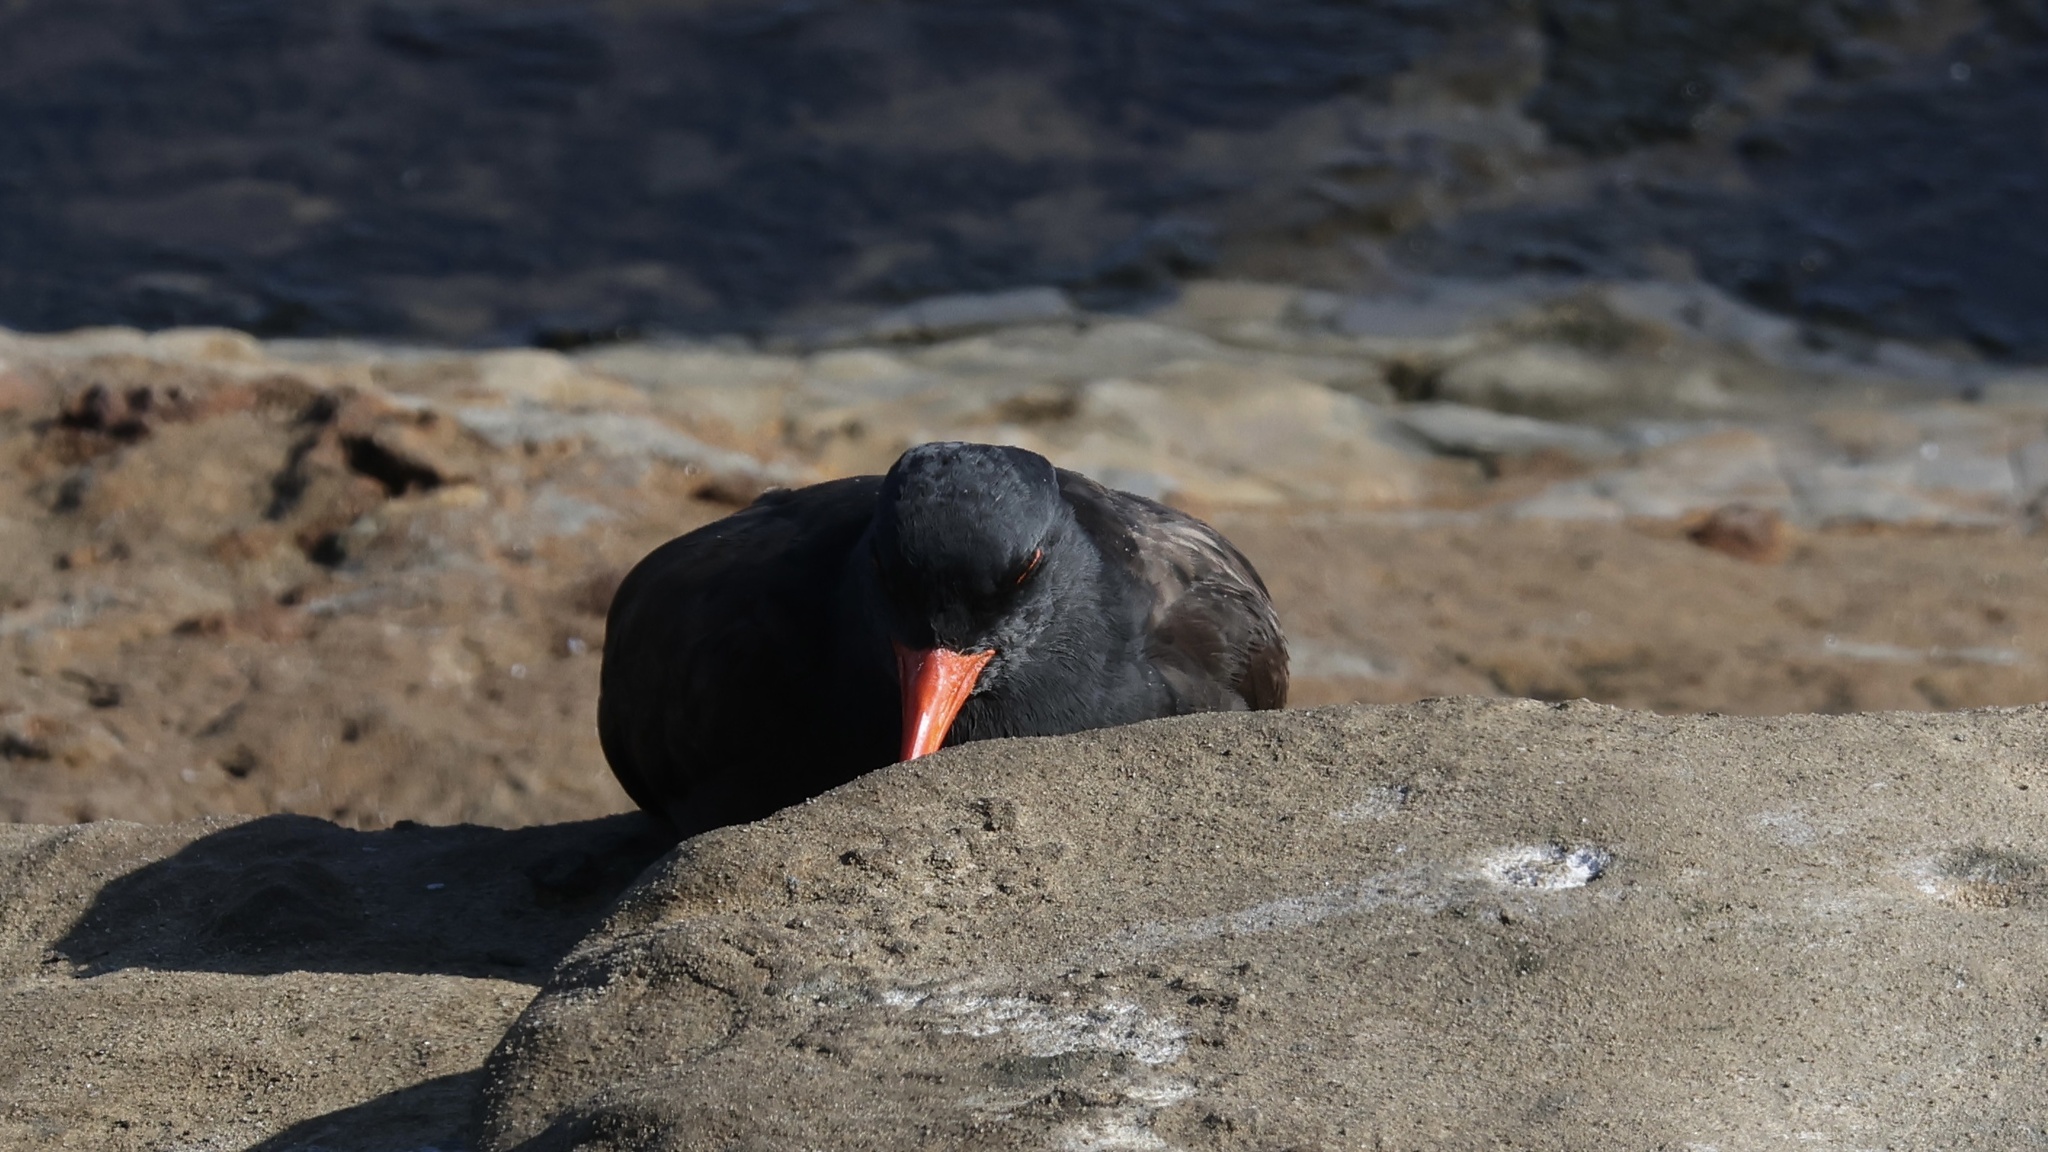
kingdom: Animalia
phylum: Chordata
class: Aves
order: Charadriiformes
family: Haematopodidae
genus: Haematopus
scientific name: Haematopus bachmani
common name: Black oystercatcher
